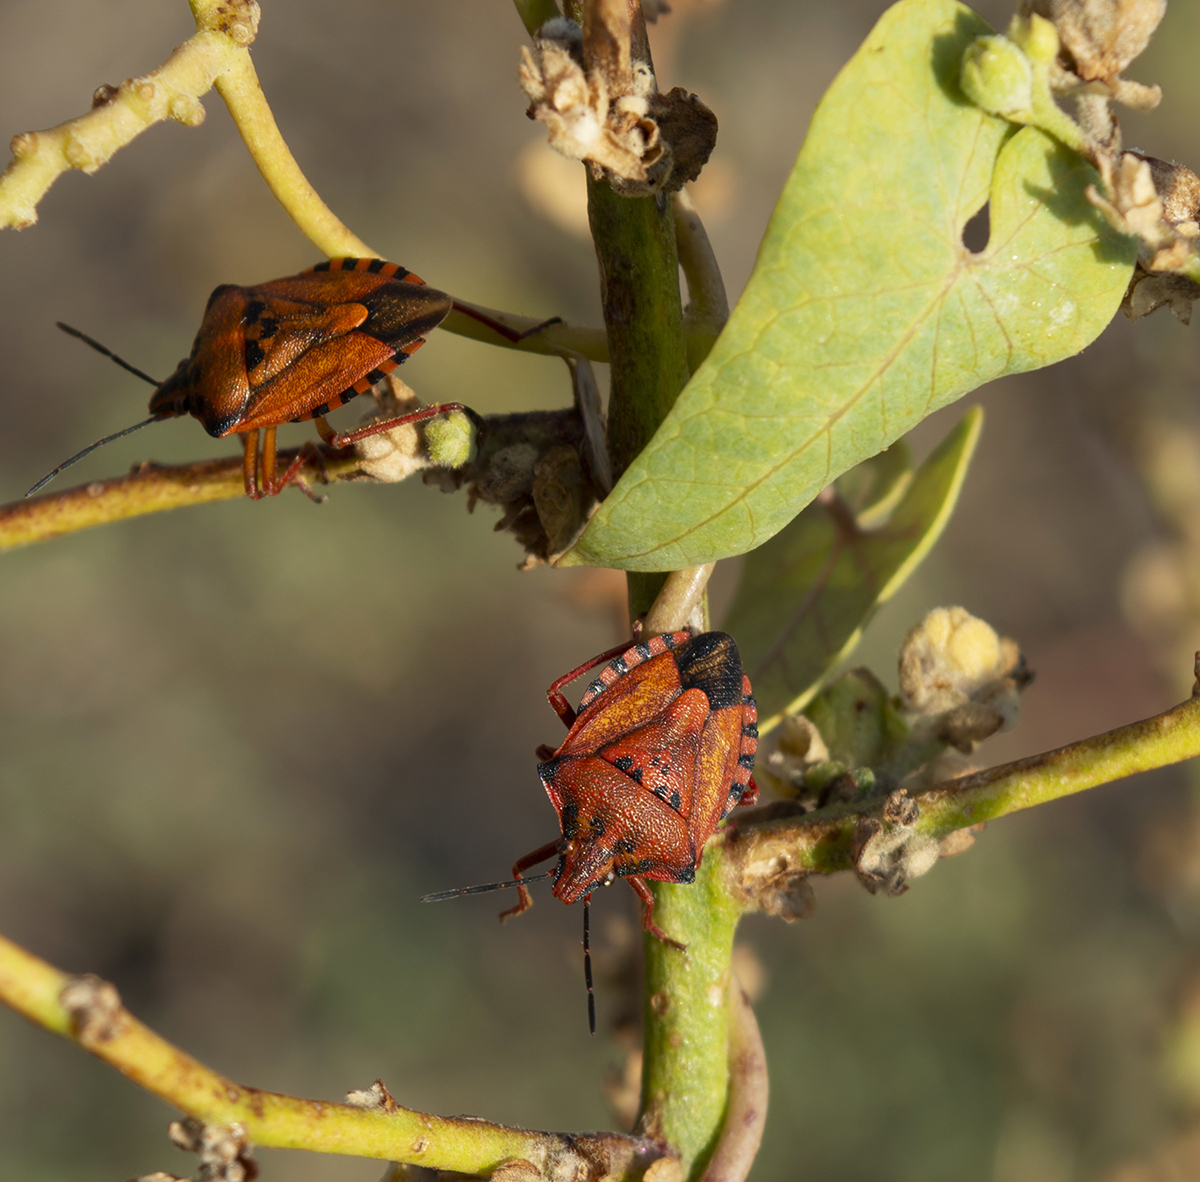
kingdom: Animalia
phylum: Arthropoda
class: Insecta
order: Hemiptera
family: Pentatomidae
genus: Carpocoris
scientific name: Carpocoris mediterraneus
